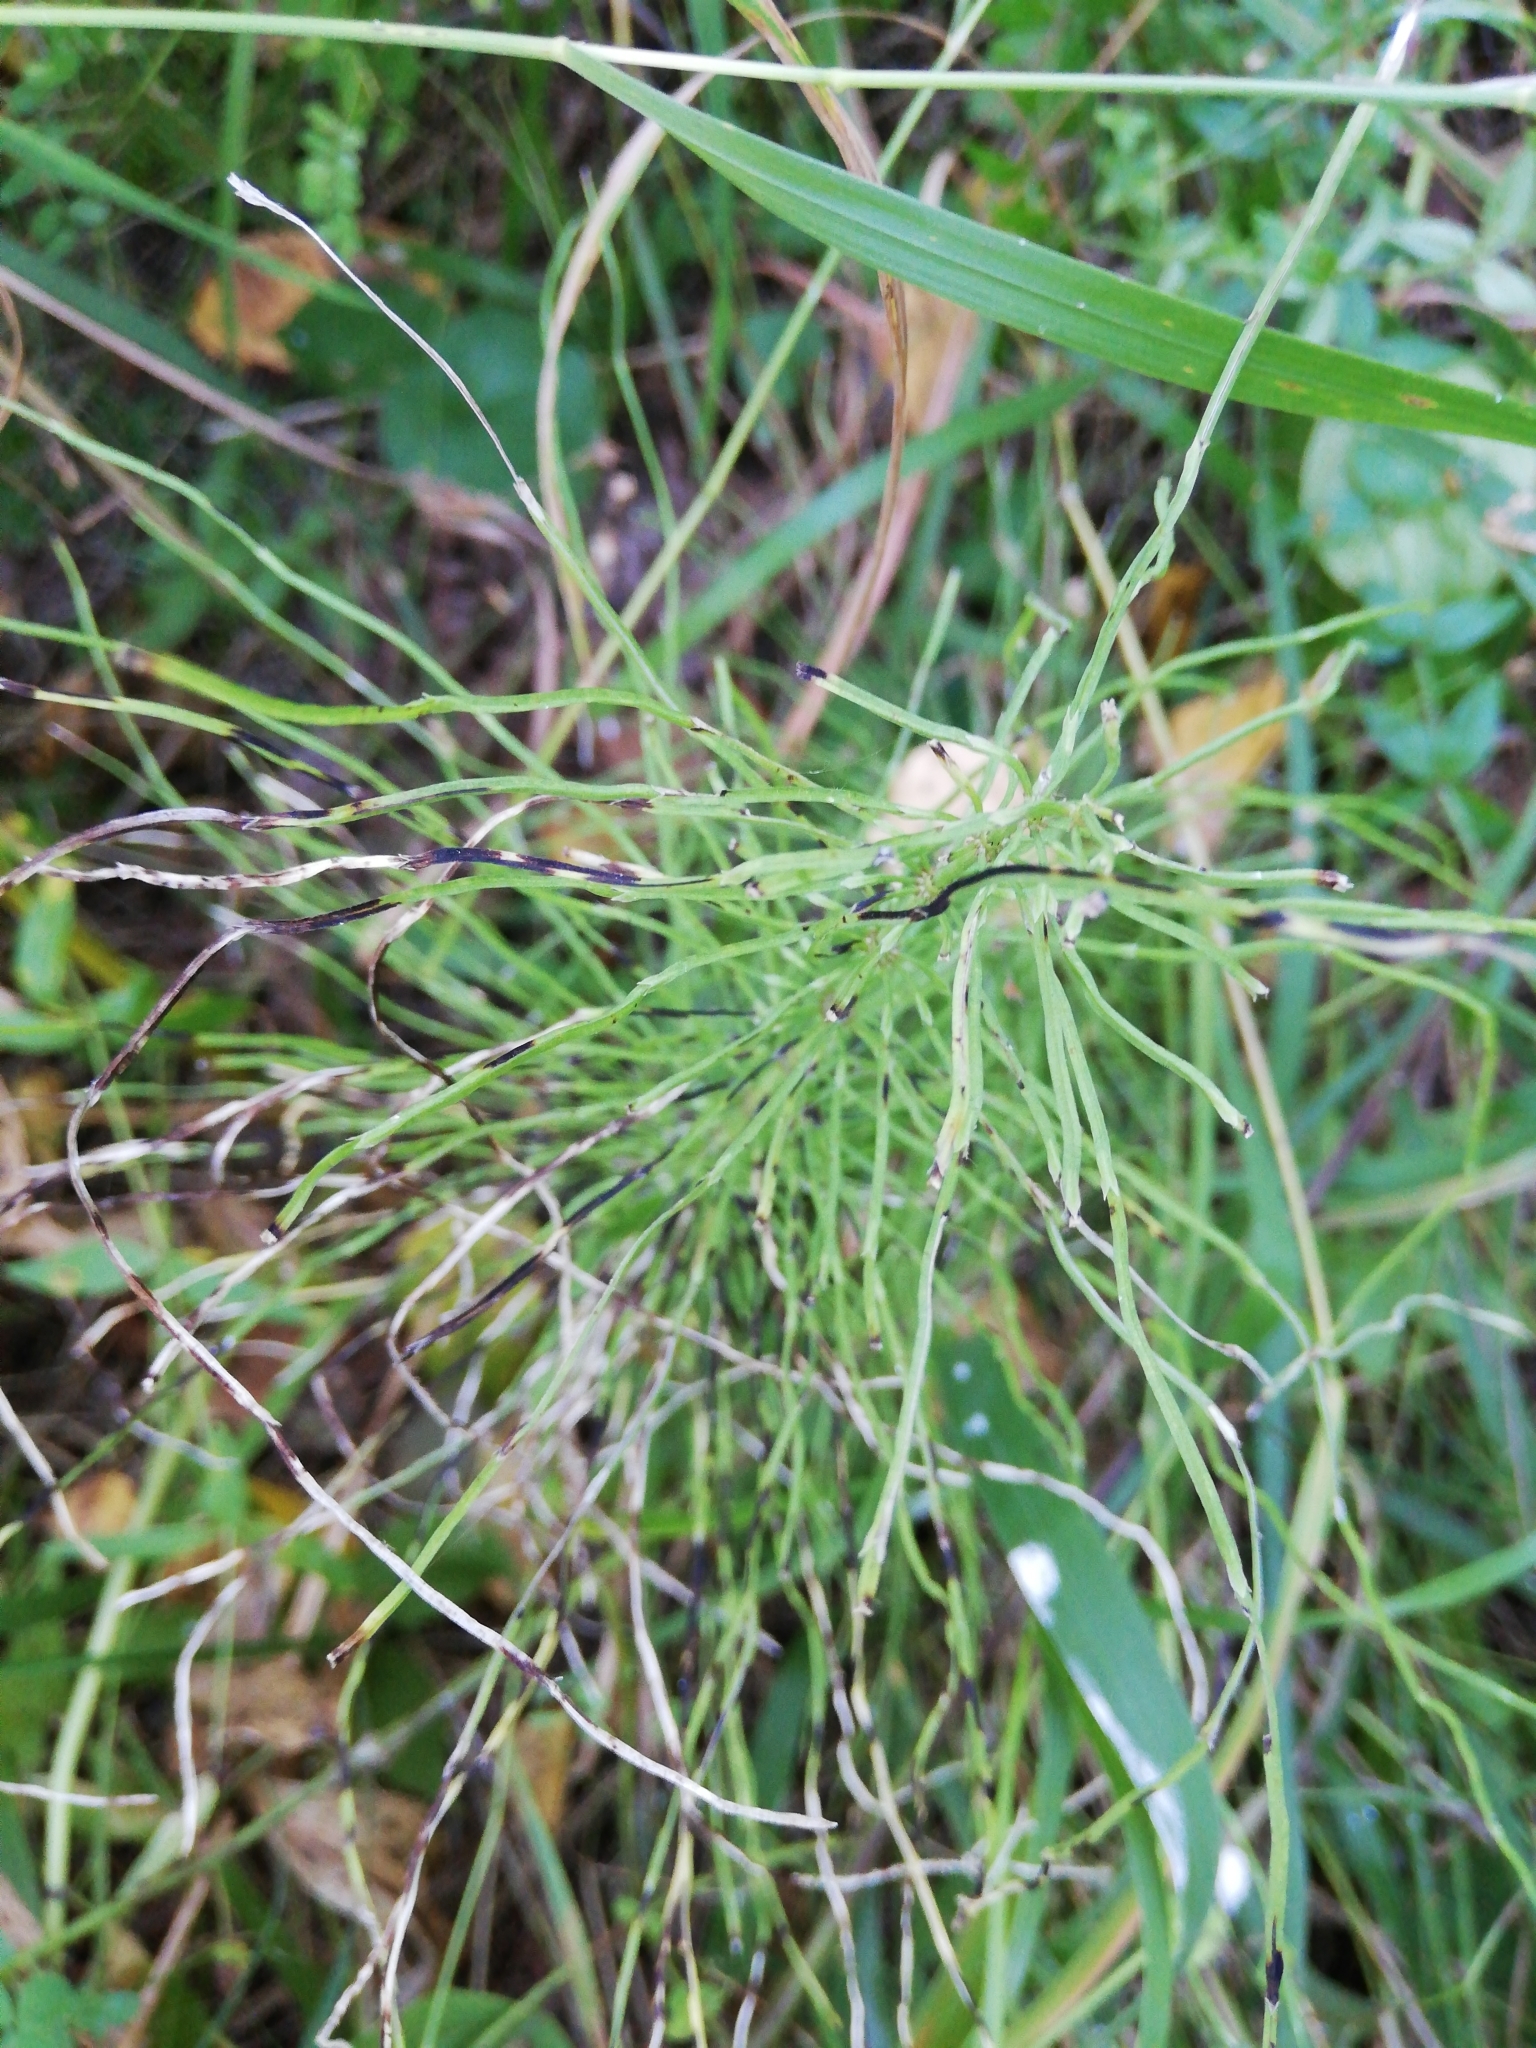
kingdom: Plantae
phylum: Tracheophyta
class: Polypodiopsida
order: Equisetales
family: Equisetaceae
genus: Equisetum
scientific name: Equisetum pratense
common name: Meadow horsetail
